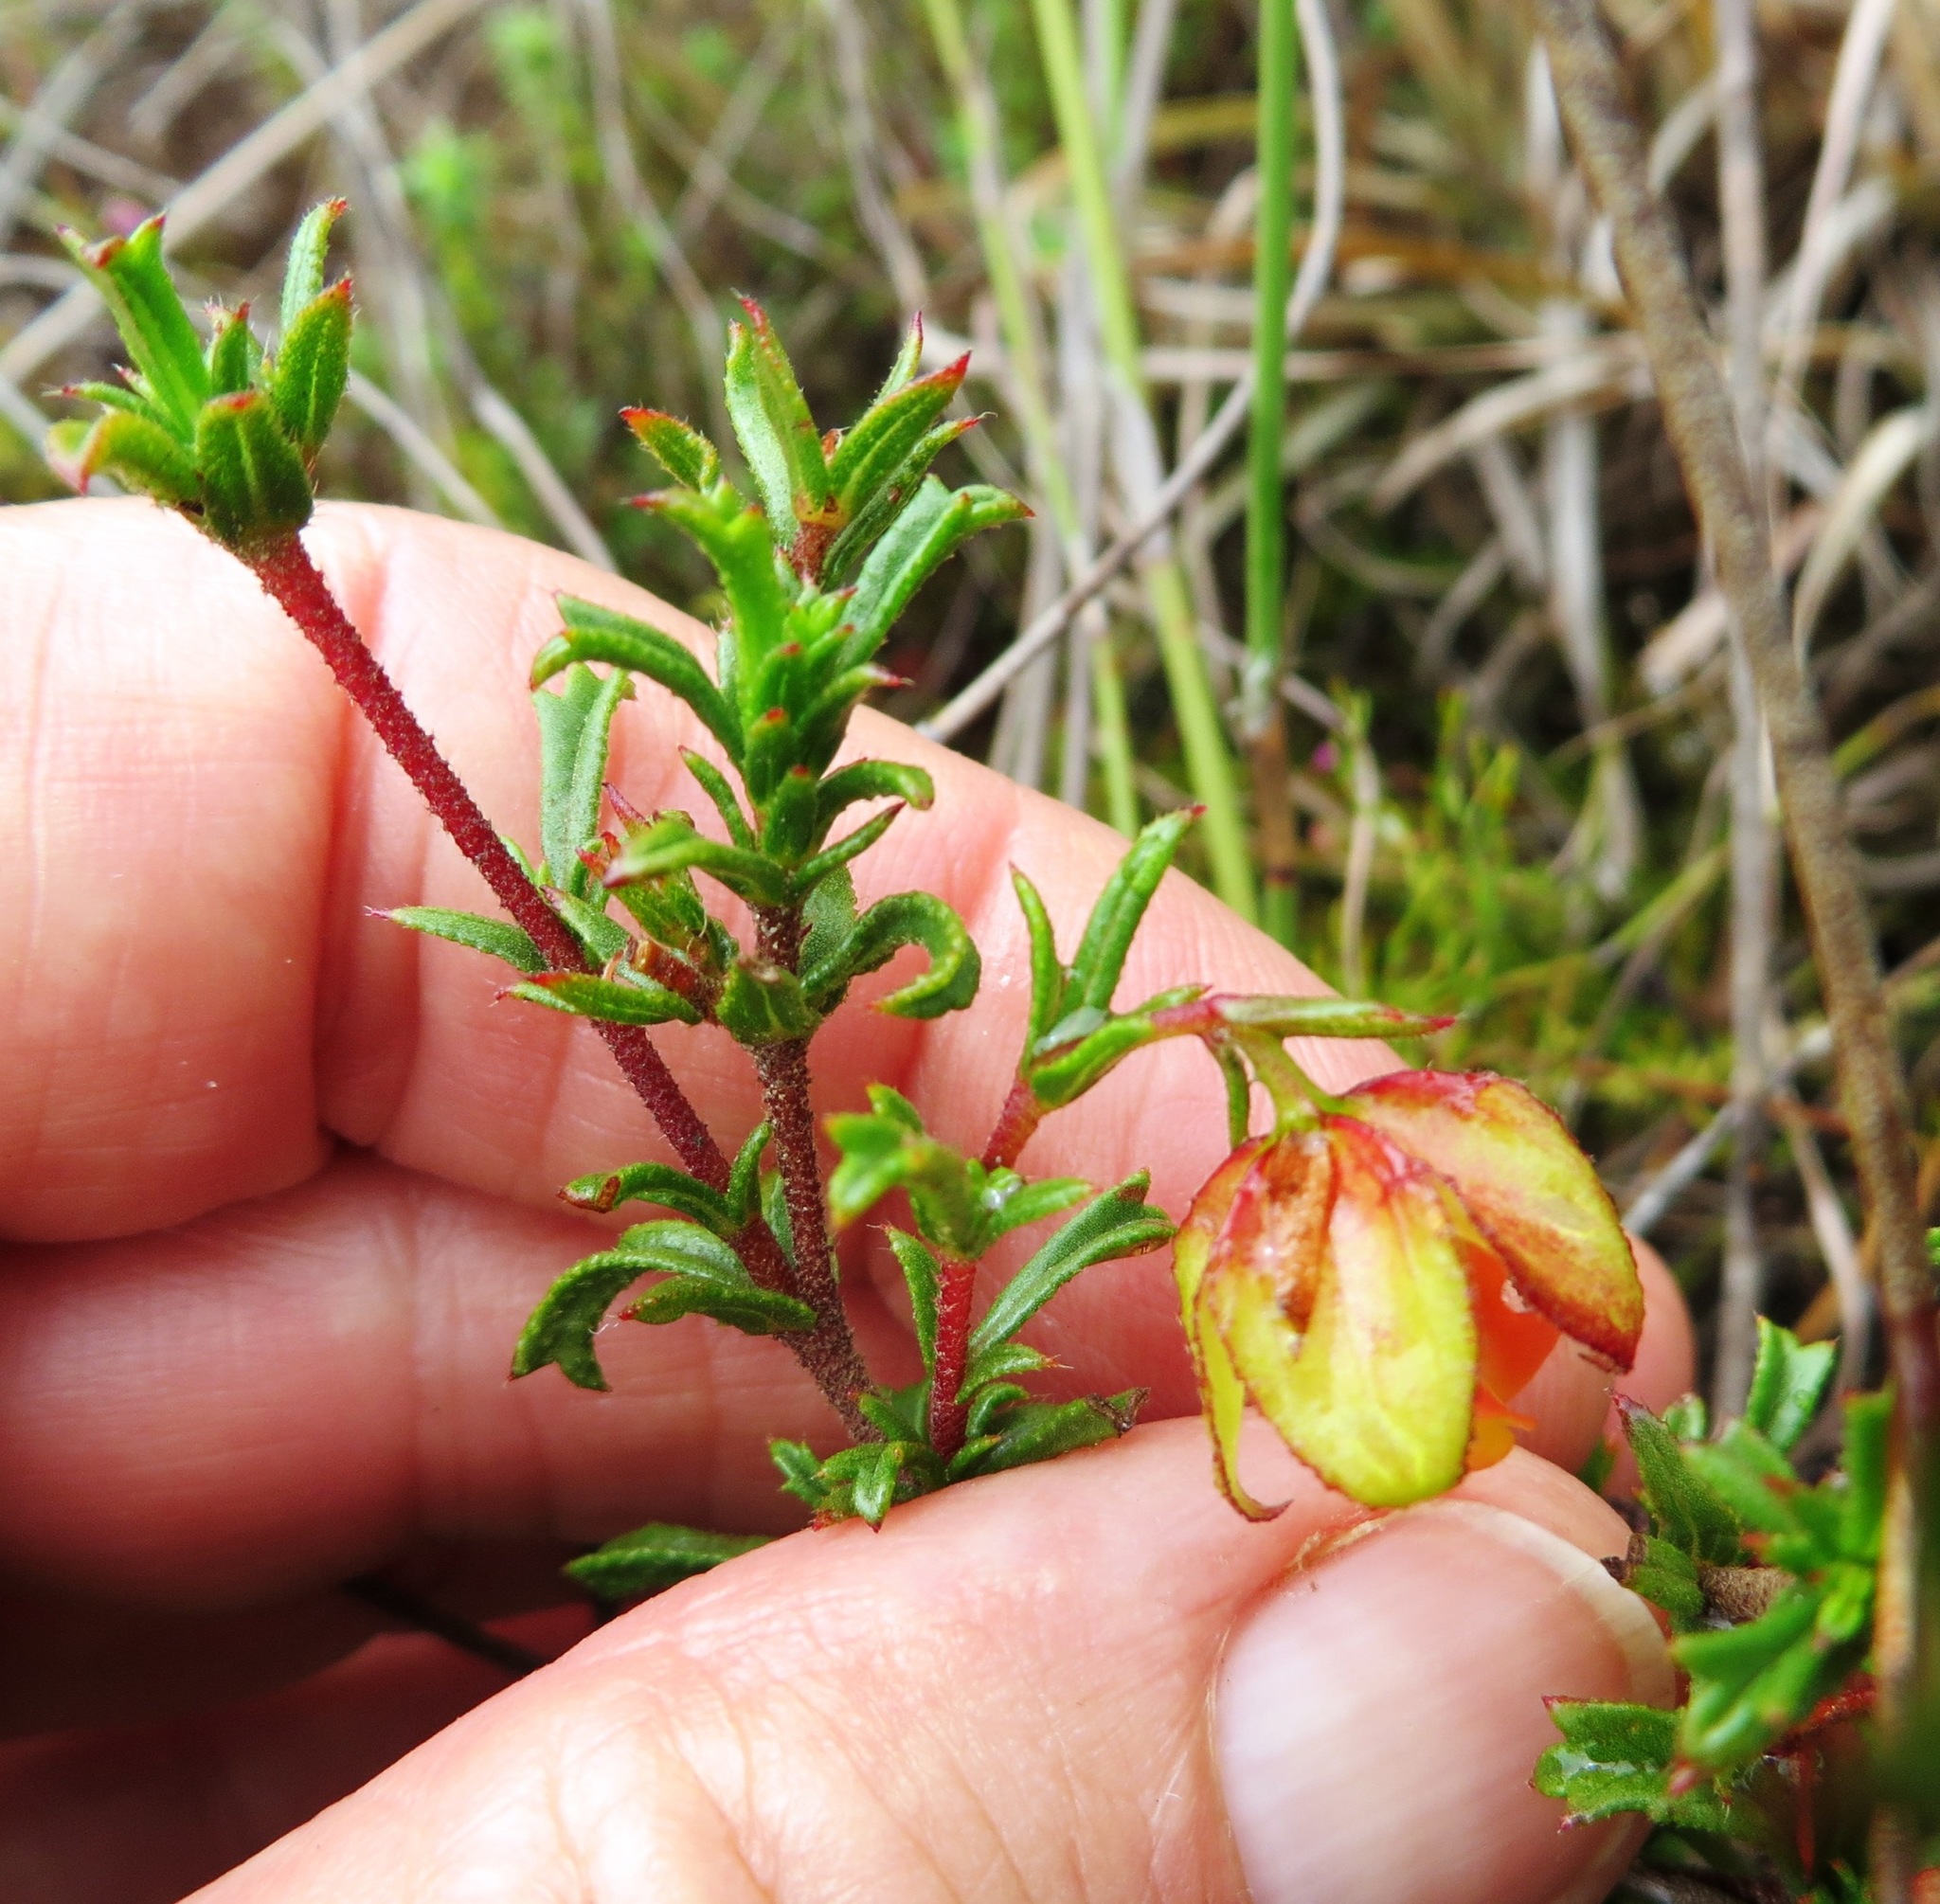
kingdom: Plantae
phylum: Tracheophyta
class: Magnoliopsida
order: Malvales
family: Malvaceae
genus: Hermannia
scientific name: Hermannia angularis
